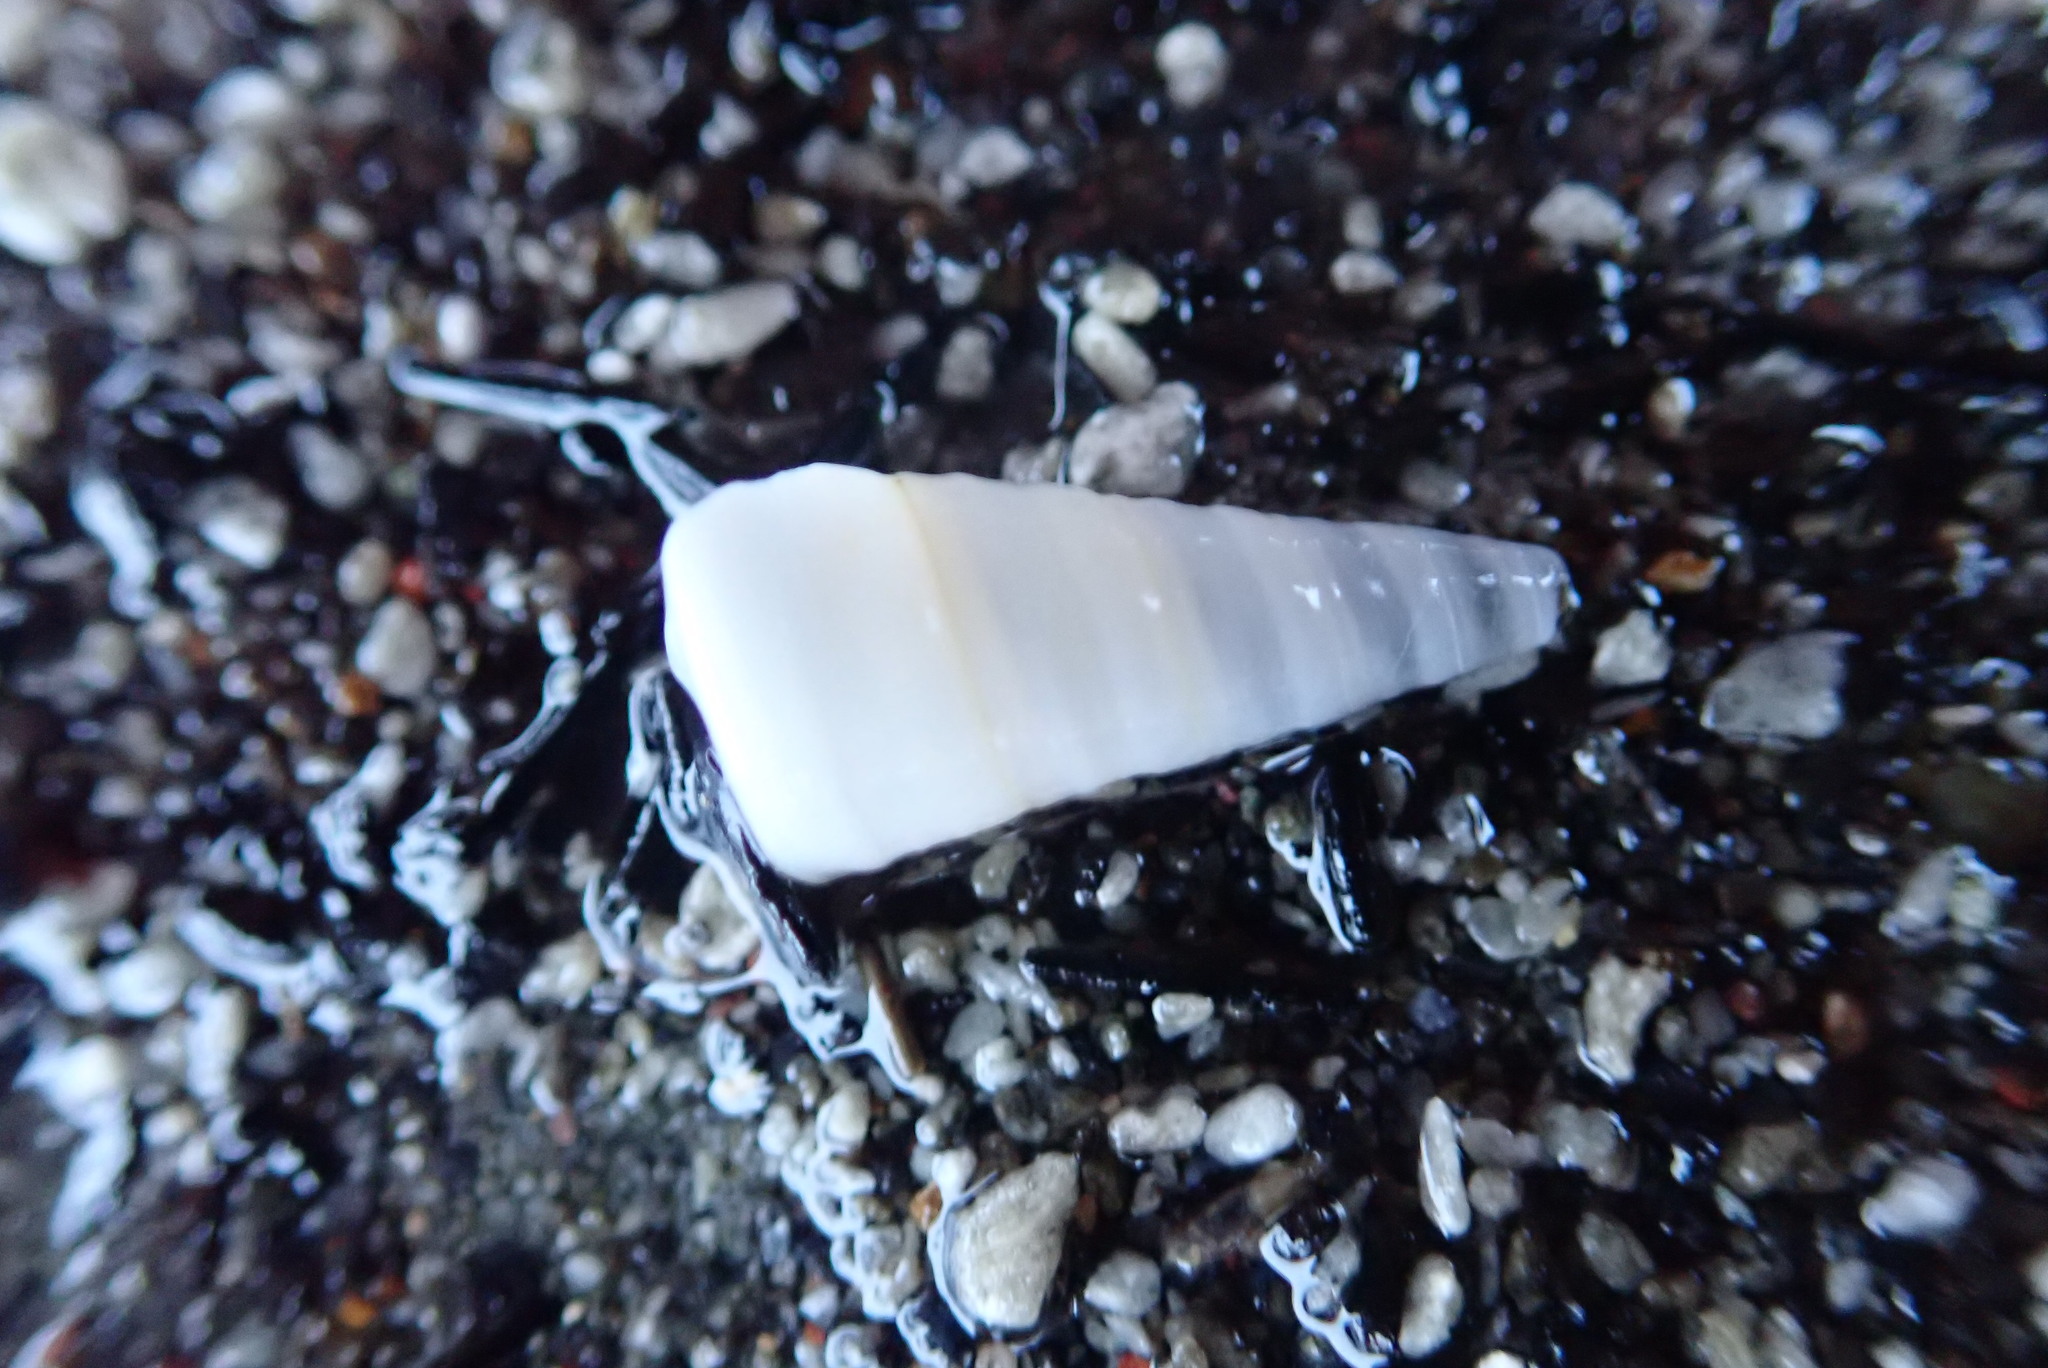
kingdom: Animalia
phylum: Mollusca
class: Gastropoda
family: Turritellidae
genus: Maoricolpus
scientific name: Maoricolpus roseus
